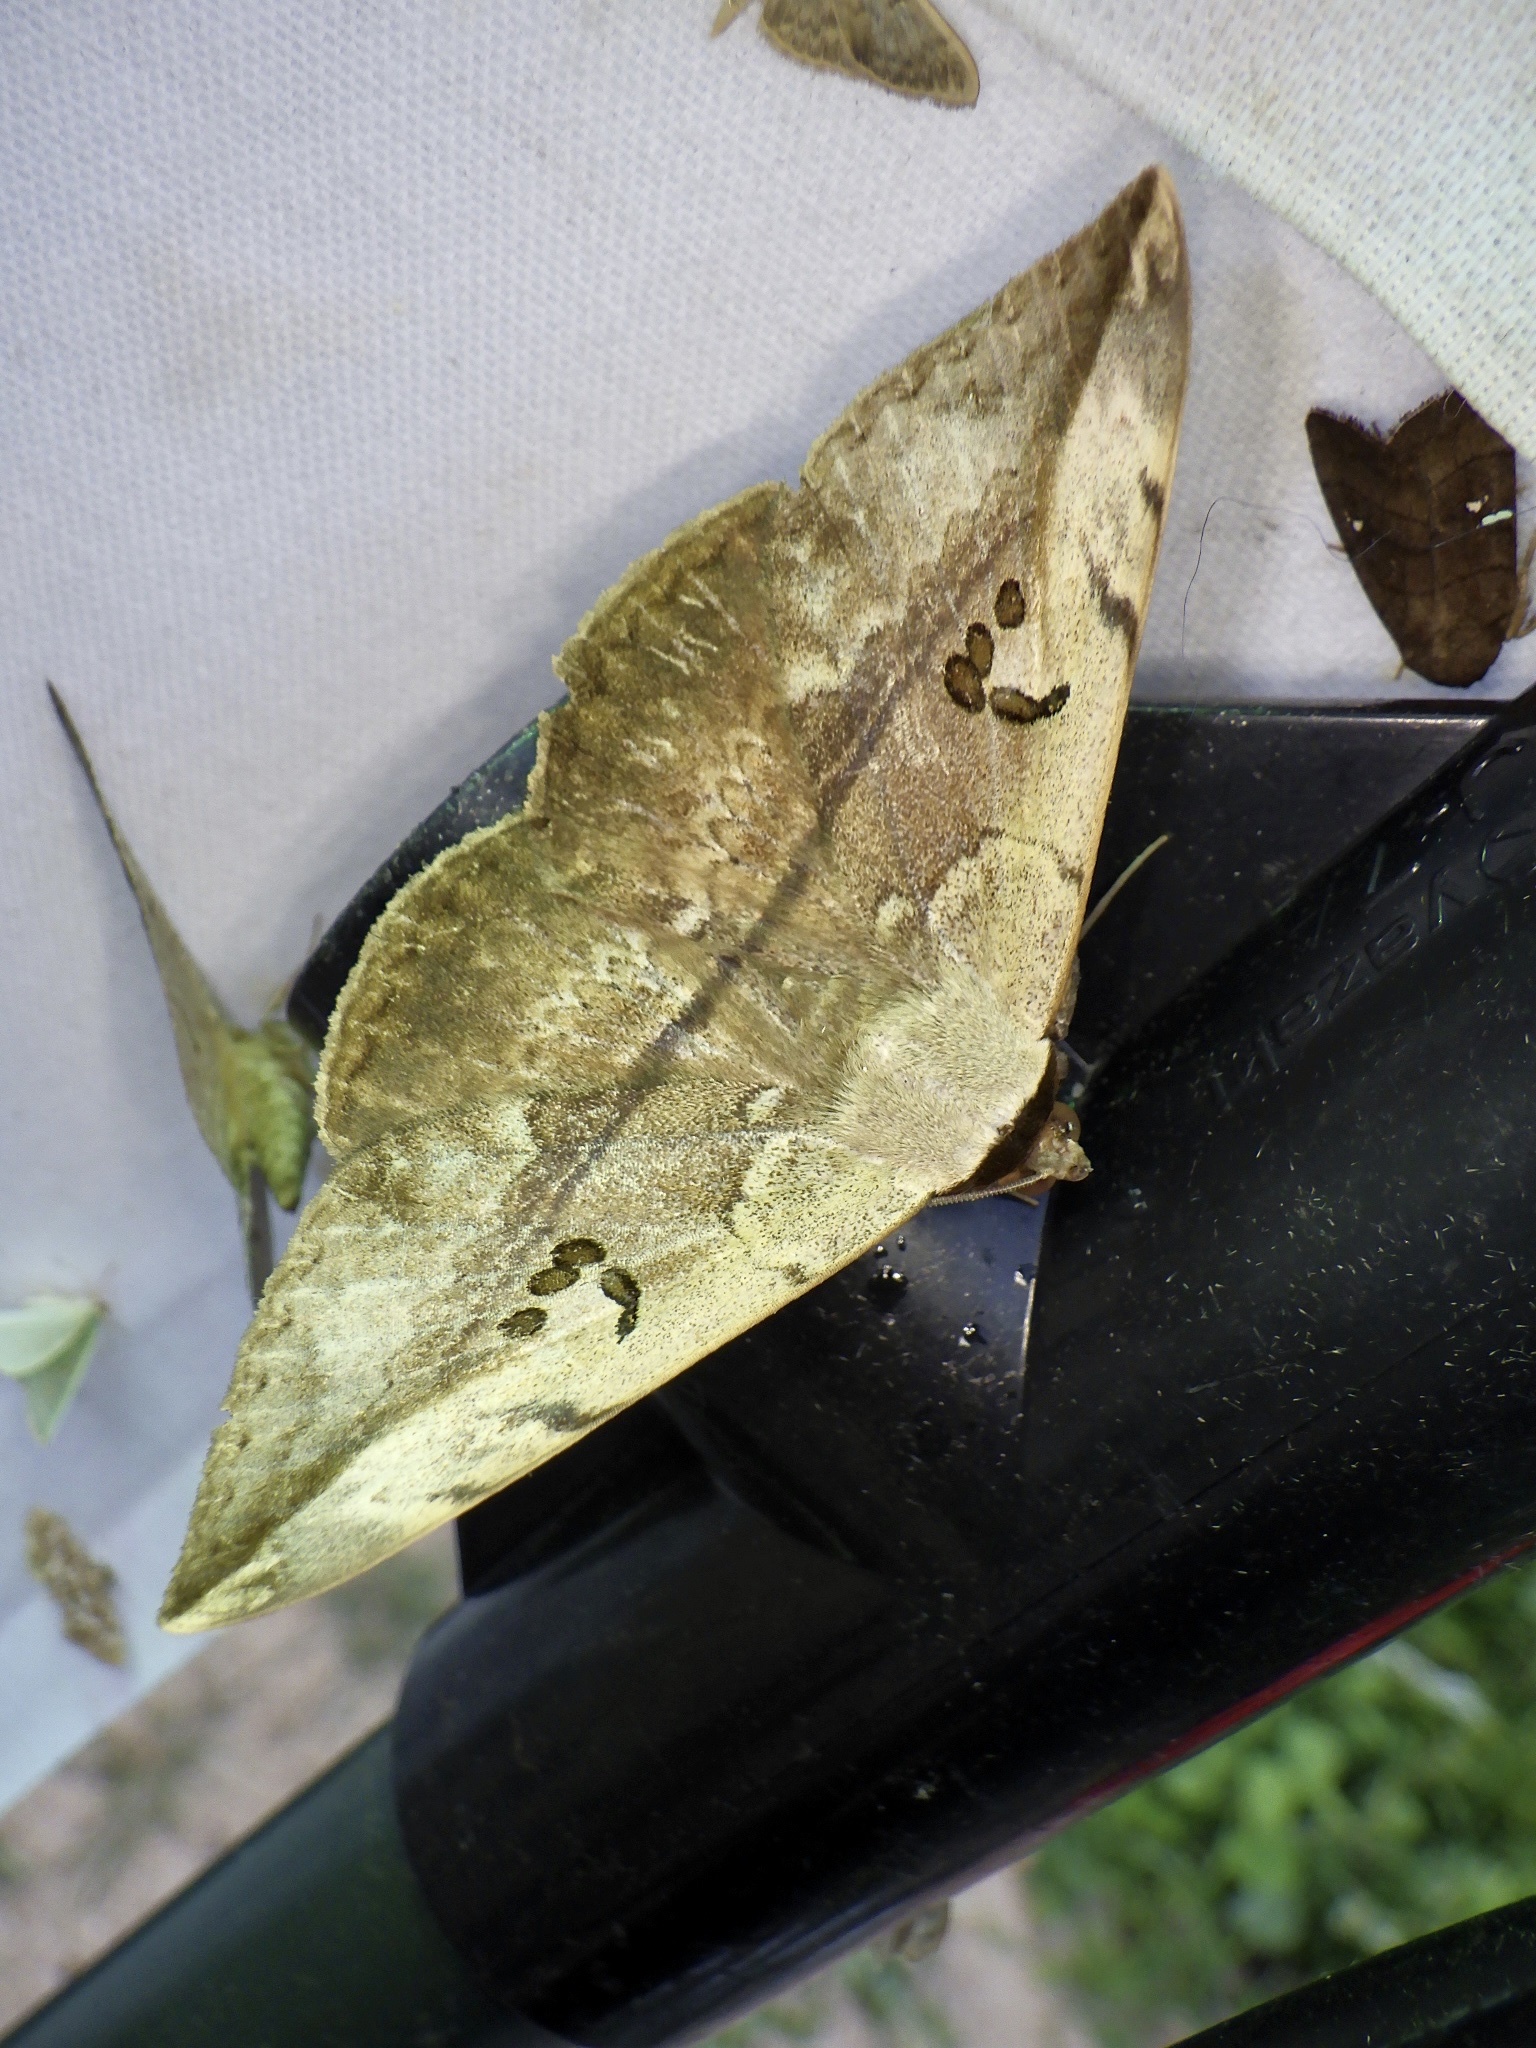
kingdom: Animalia
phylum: Arthropoda
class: Insecta
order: Lepidoptera
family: Erebidae
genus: Hypopyra
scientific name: Hypopyra vespertilio
